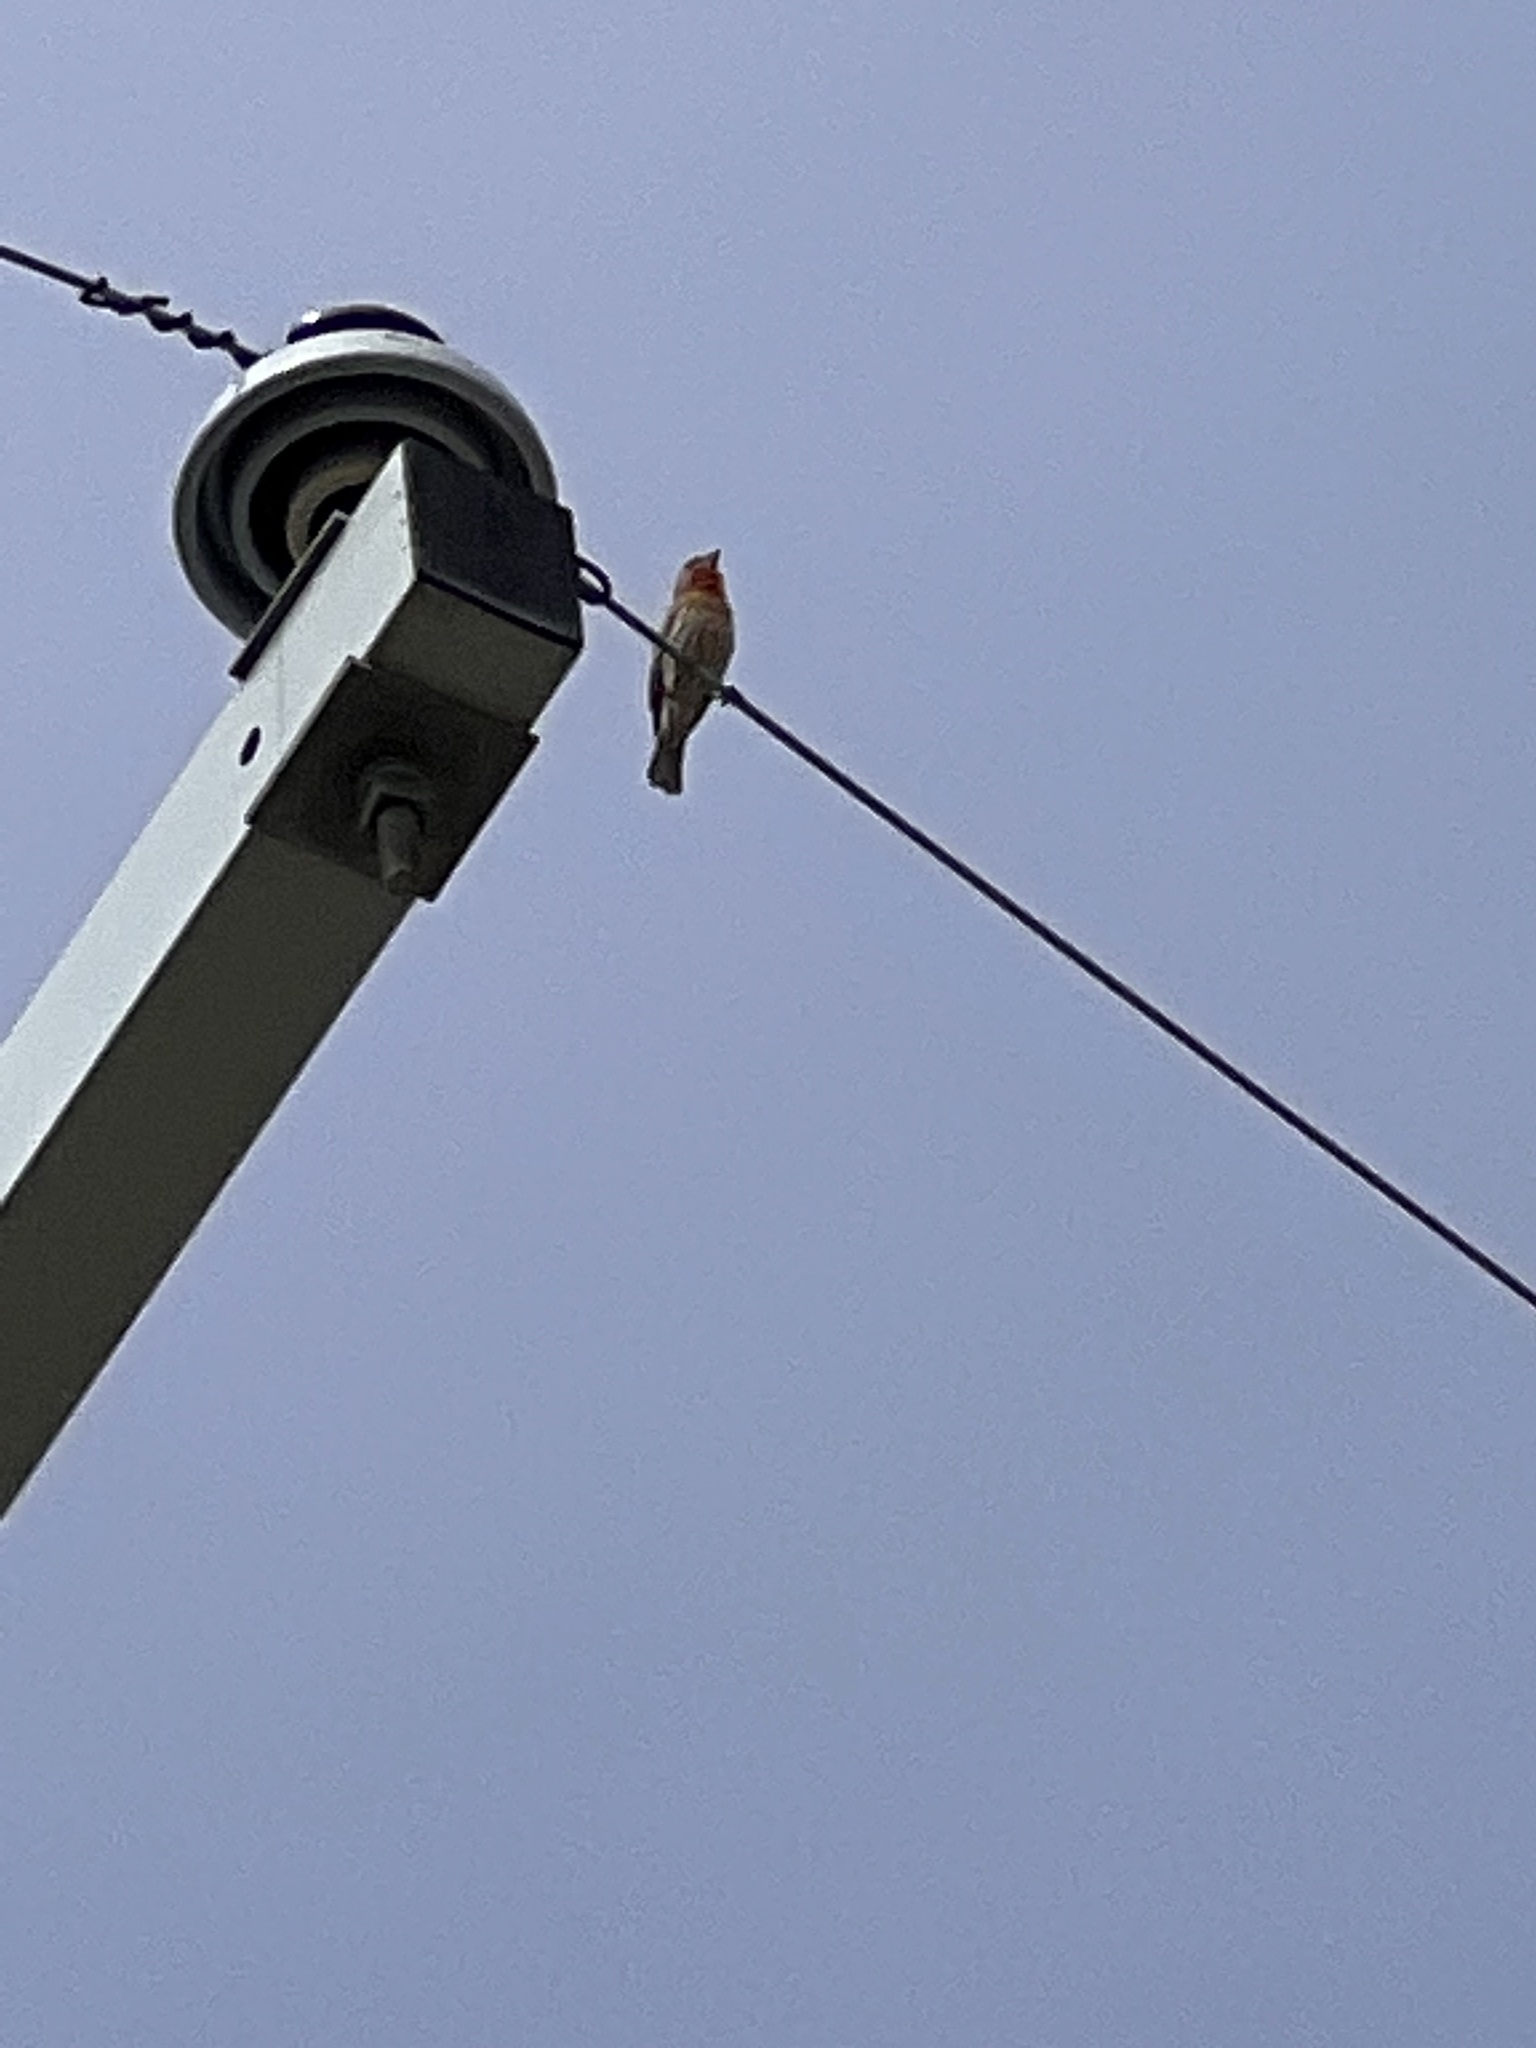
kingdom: Animalia
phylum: Chordata
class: Aves
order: Passeriformes
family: Fringillidae
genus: Haemorhous
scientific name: Haemorhous mexicanus
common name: House finch
